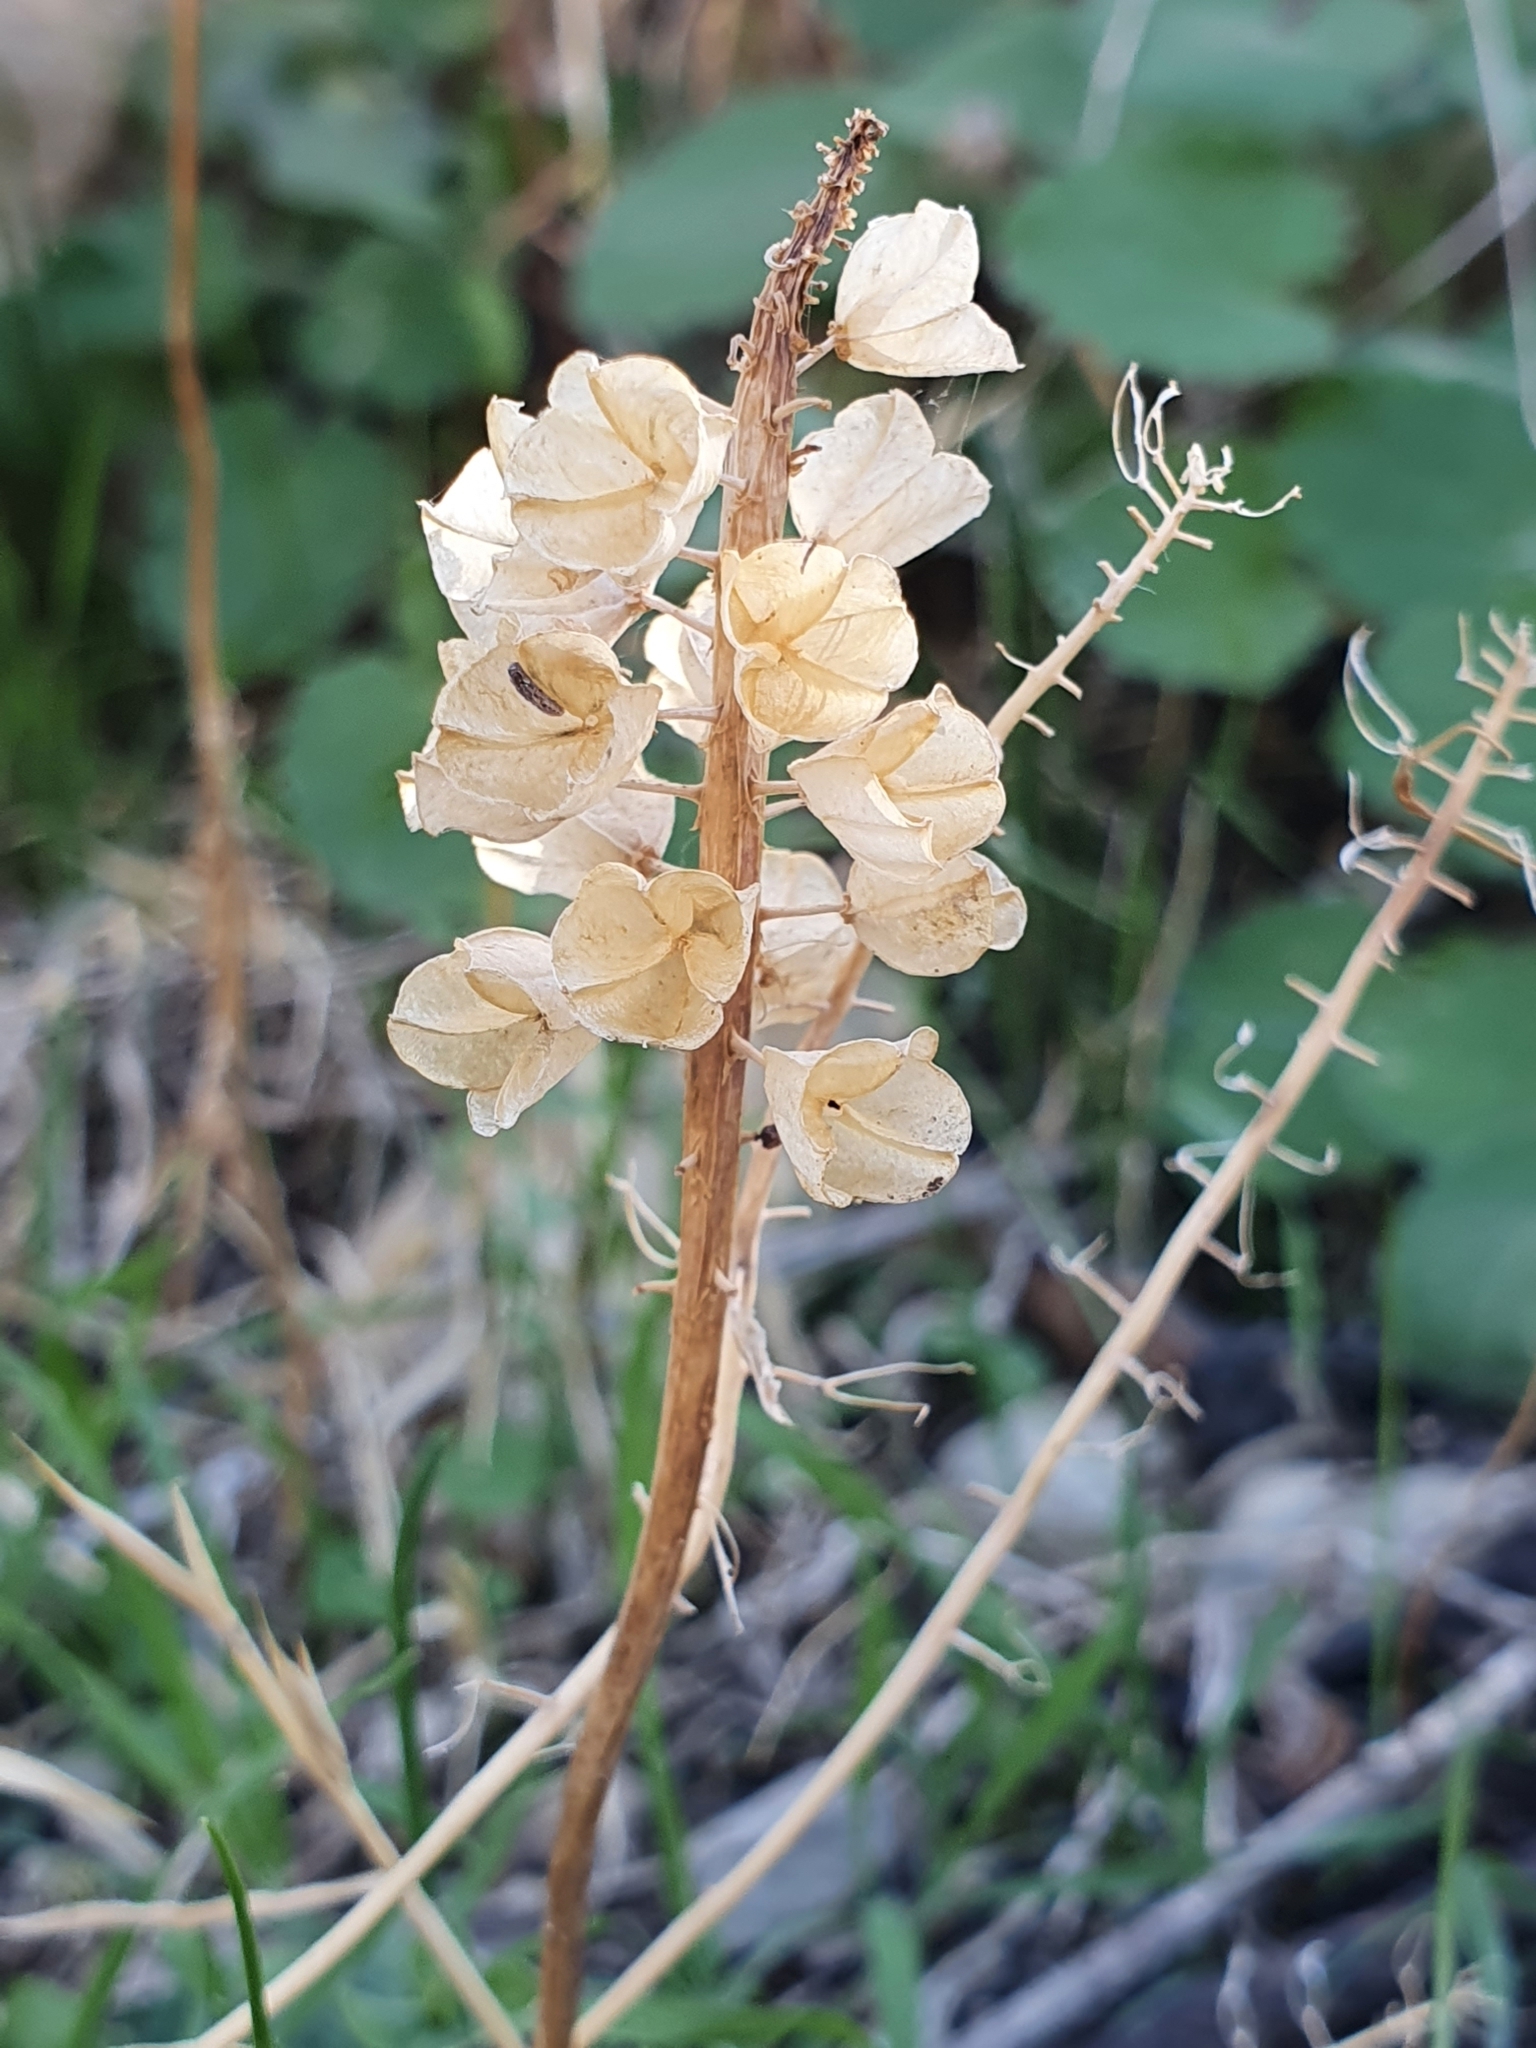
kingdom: Plantae
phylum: Tracheophyta
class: Liliopsida
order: Asparagales
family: Asparagaceae
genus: Drimia
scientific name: Drimia fugax
